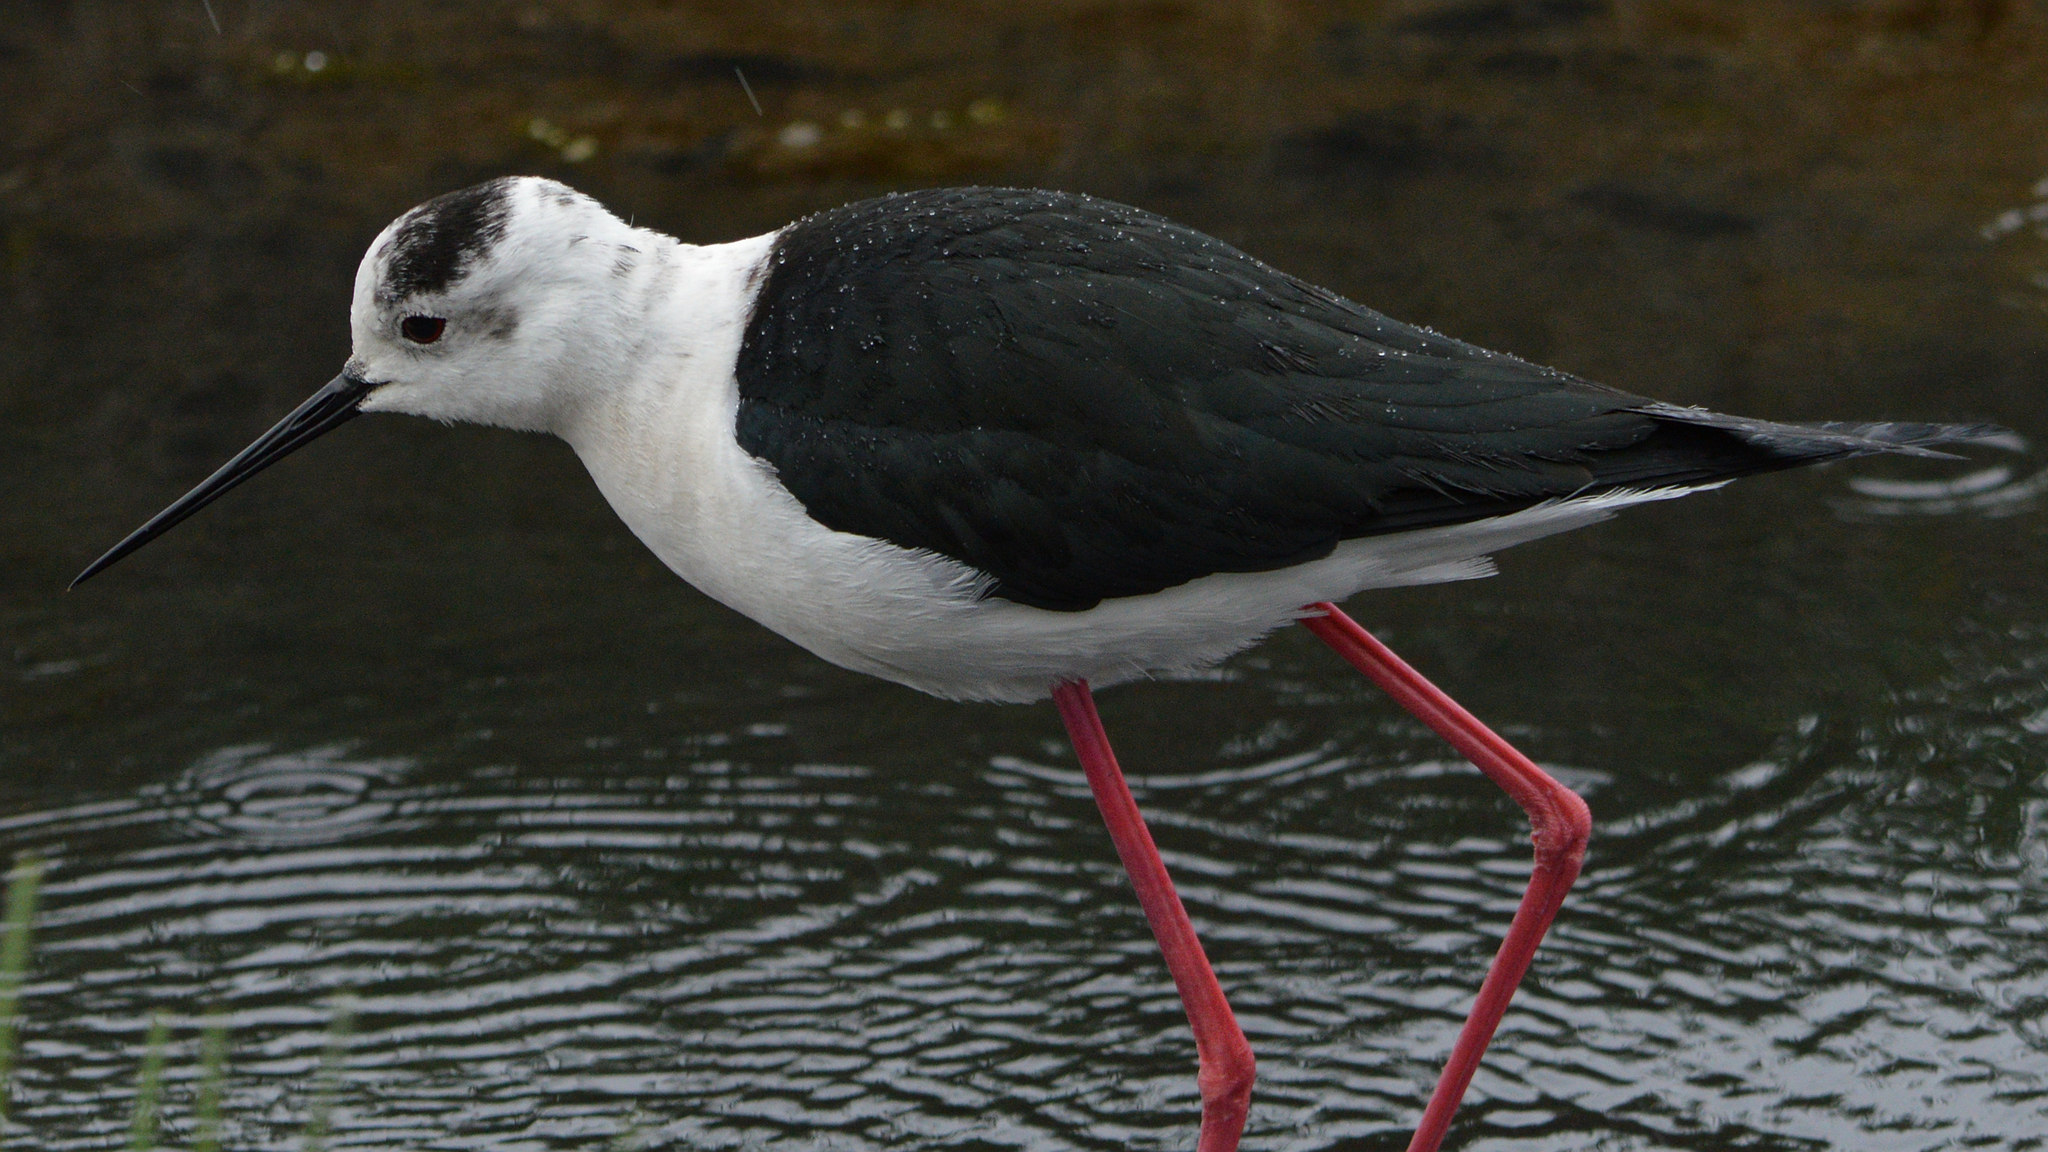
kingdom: Animalia
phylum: Chordata
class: Aves
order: Charadriiformes
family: Recurvirostridae
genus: Himantopus
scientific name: Himantopus himantopus
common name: Black-winged stilt
